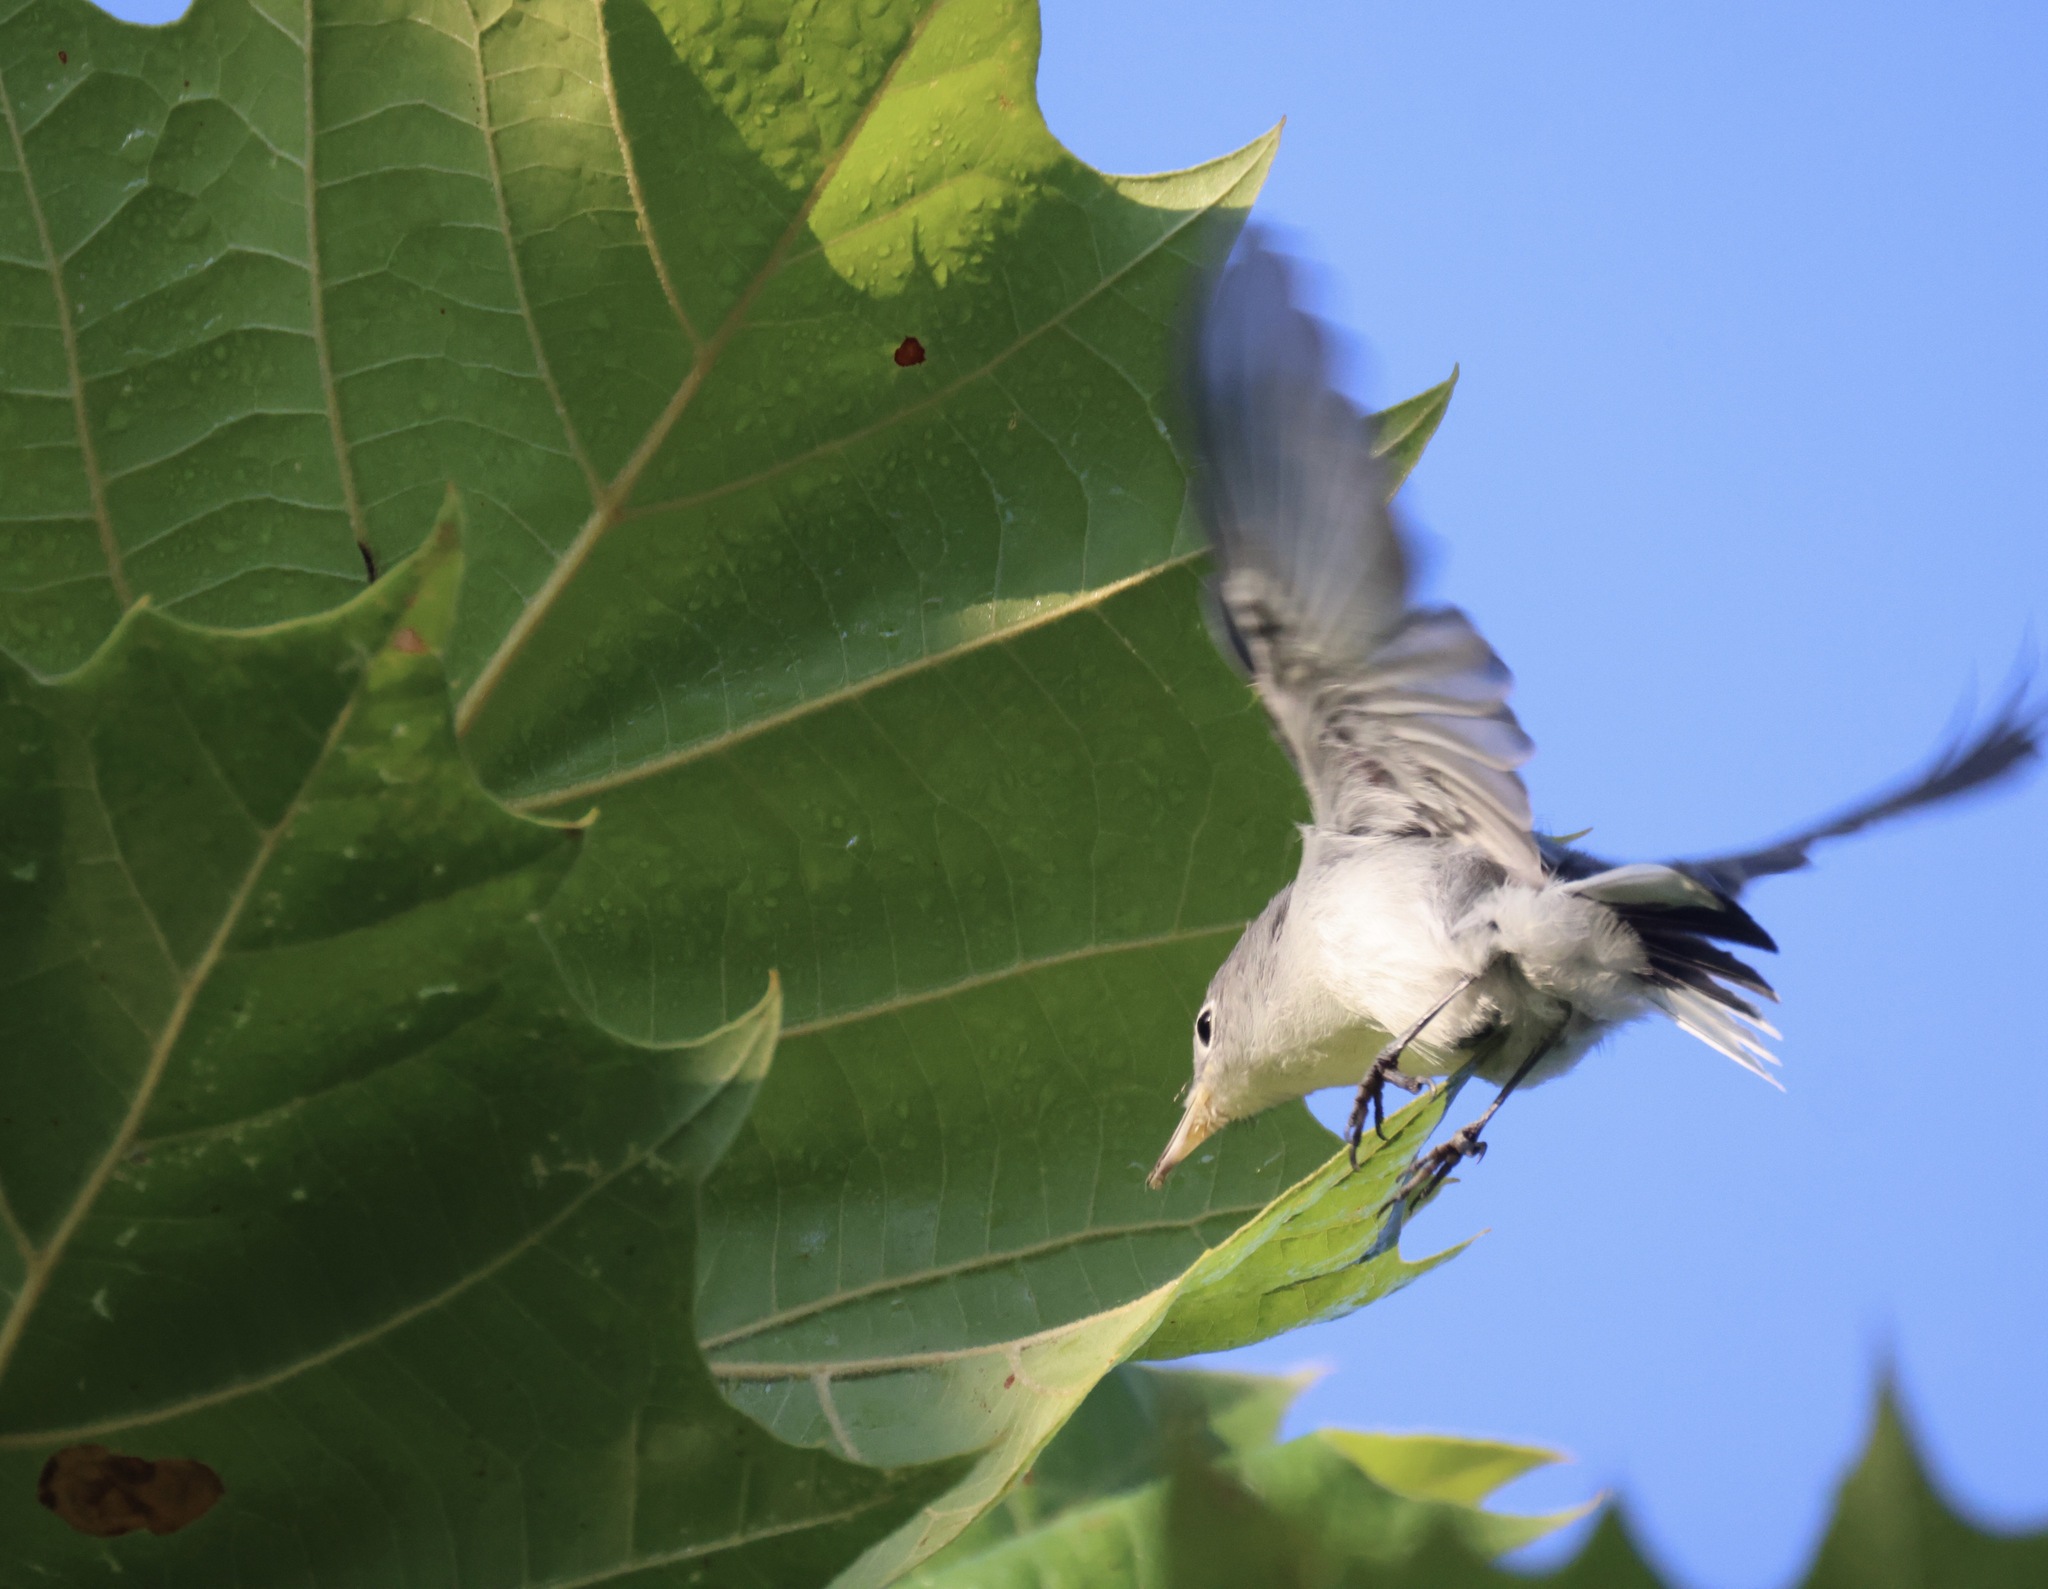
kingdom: Animalia
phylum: Chordata
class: Aves
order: Passeriformes
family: Polioptilidae
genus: Polioptila
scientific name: Polioptila caerulea
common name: Blue-gray gnatcatcher
